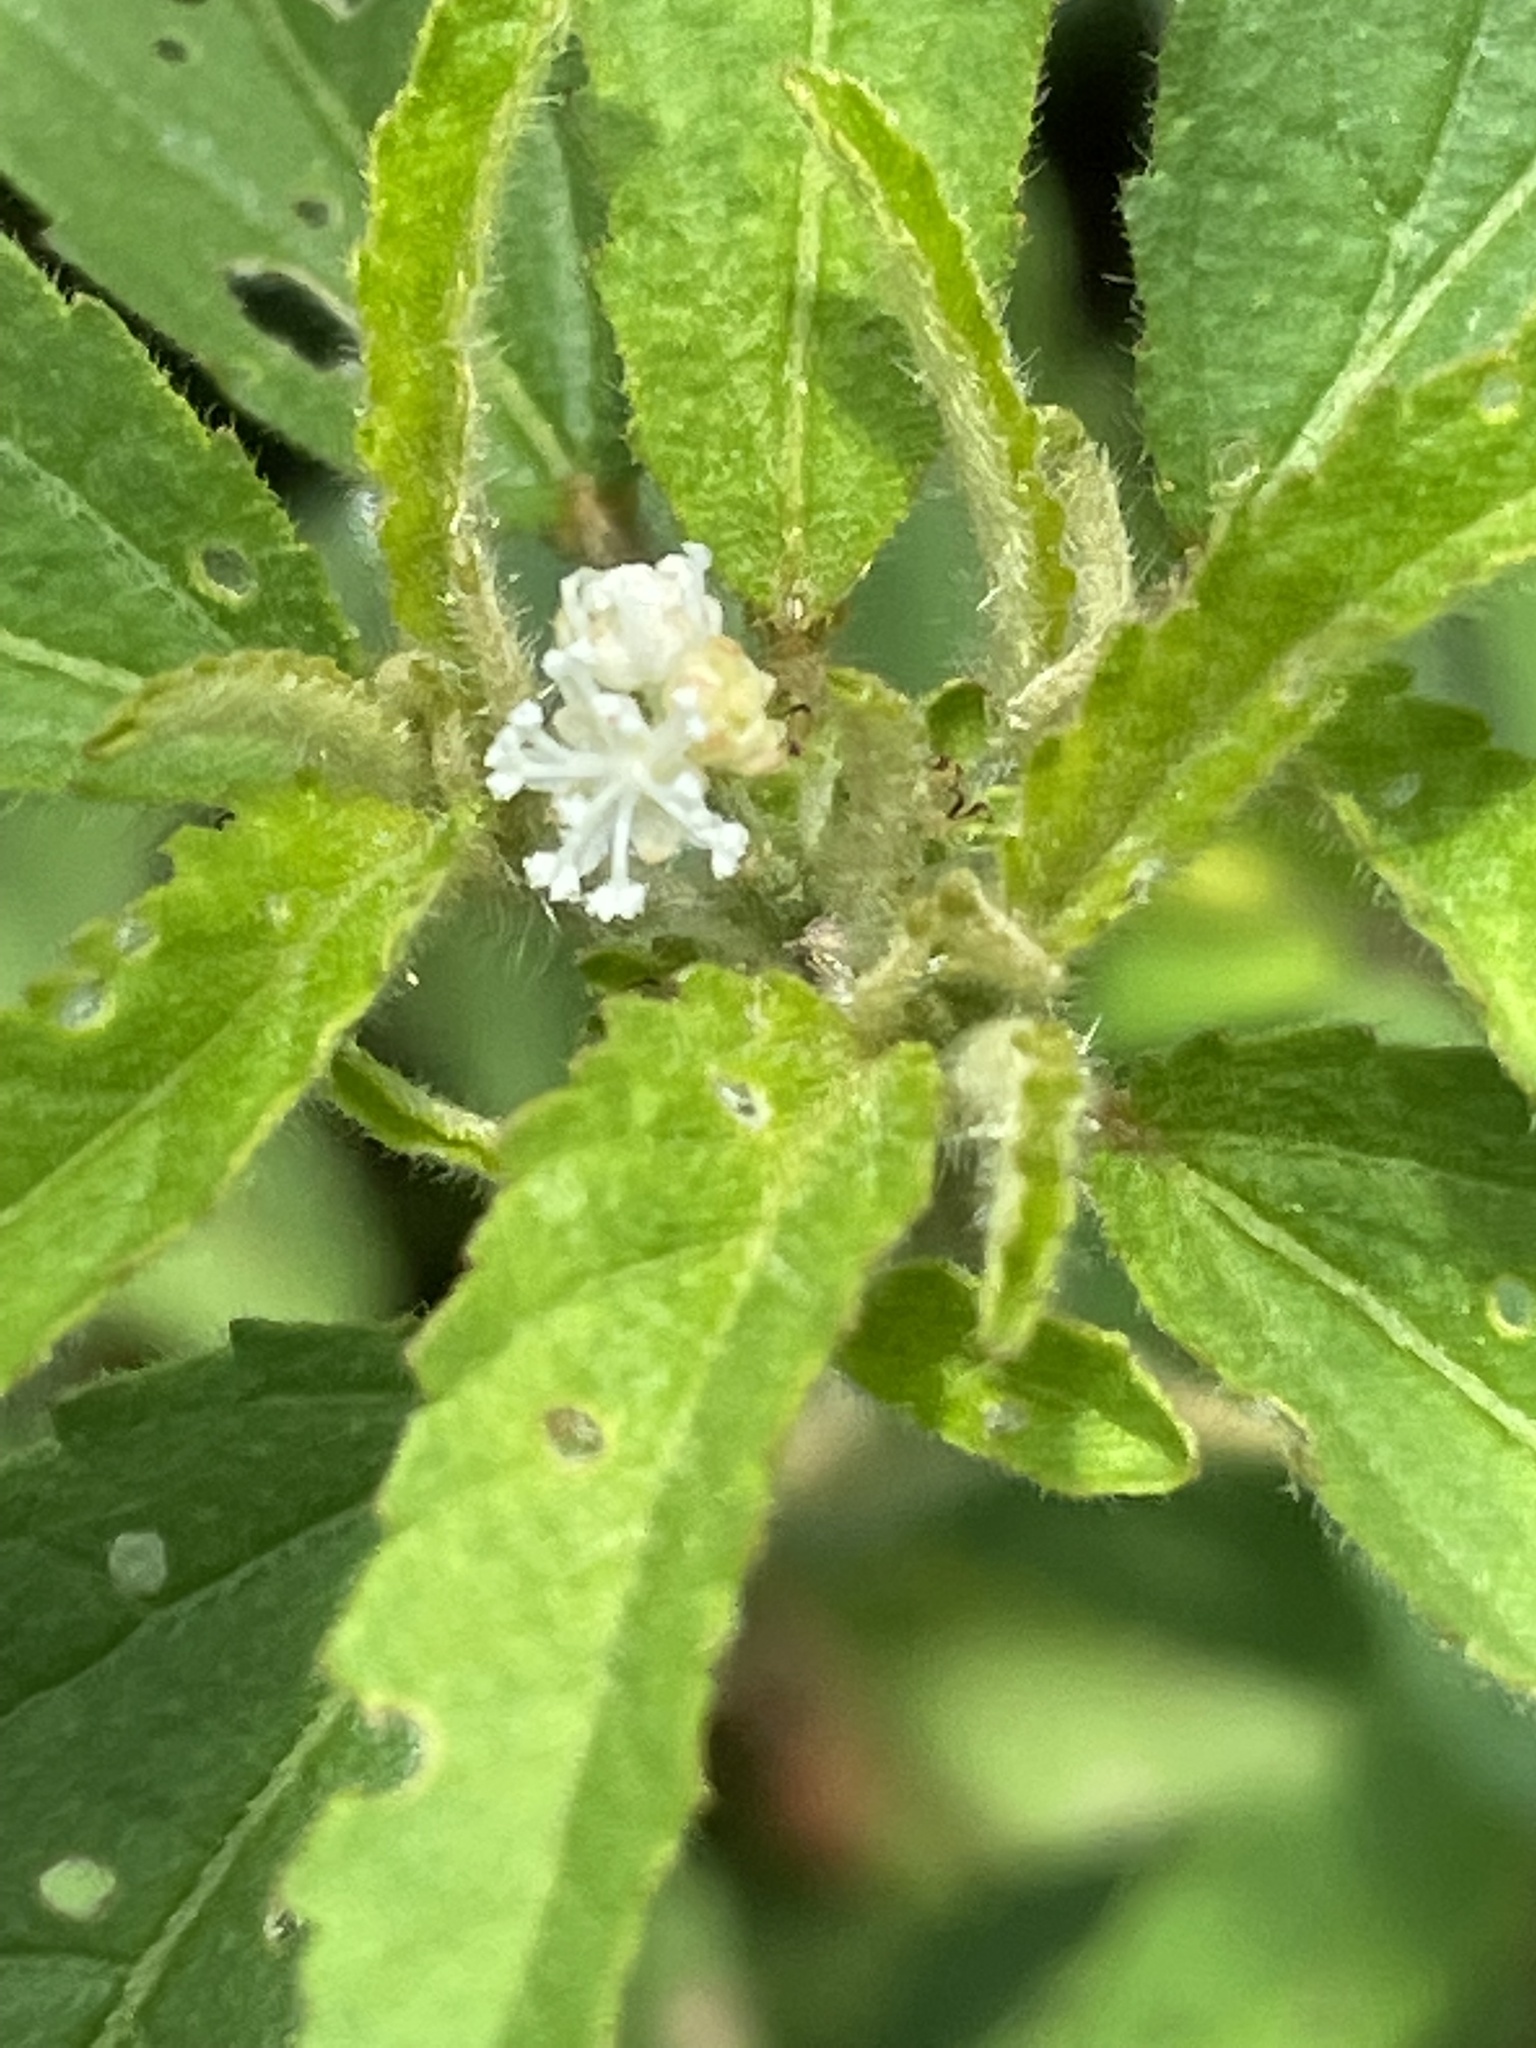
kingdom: Plantae
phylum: Tracheophyta
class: Magnoliopsida
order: Malpighiales
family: Euphorbiaceae
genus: Croton
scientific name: Croton glandulosus
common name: Tropic croton
